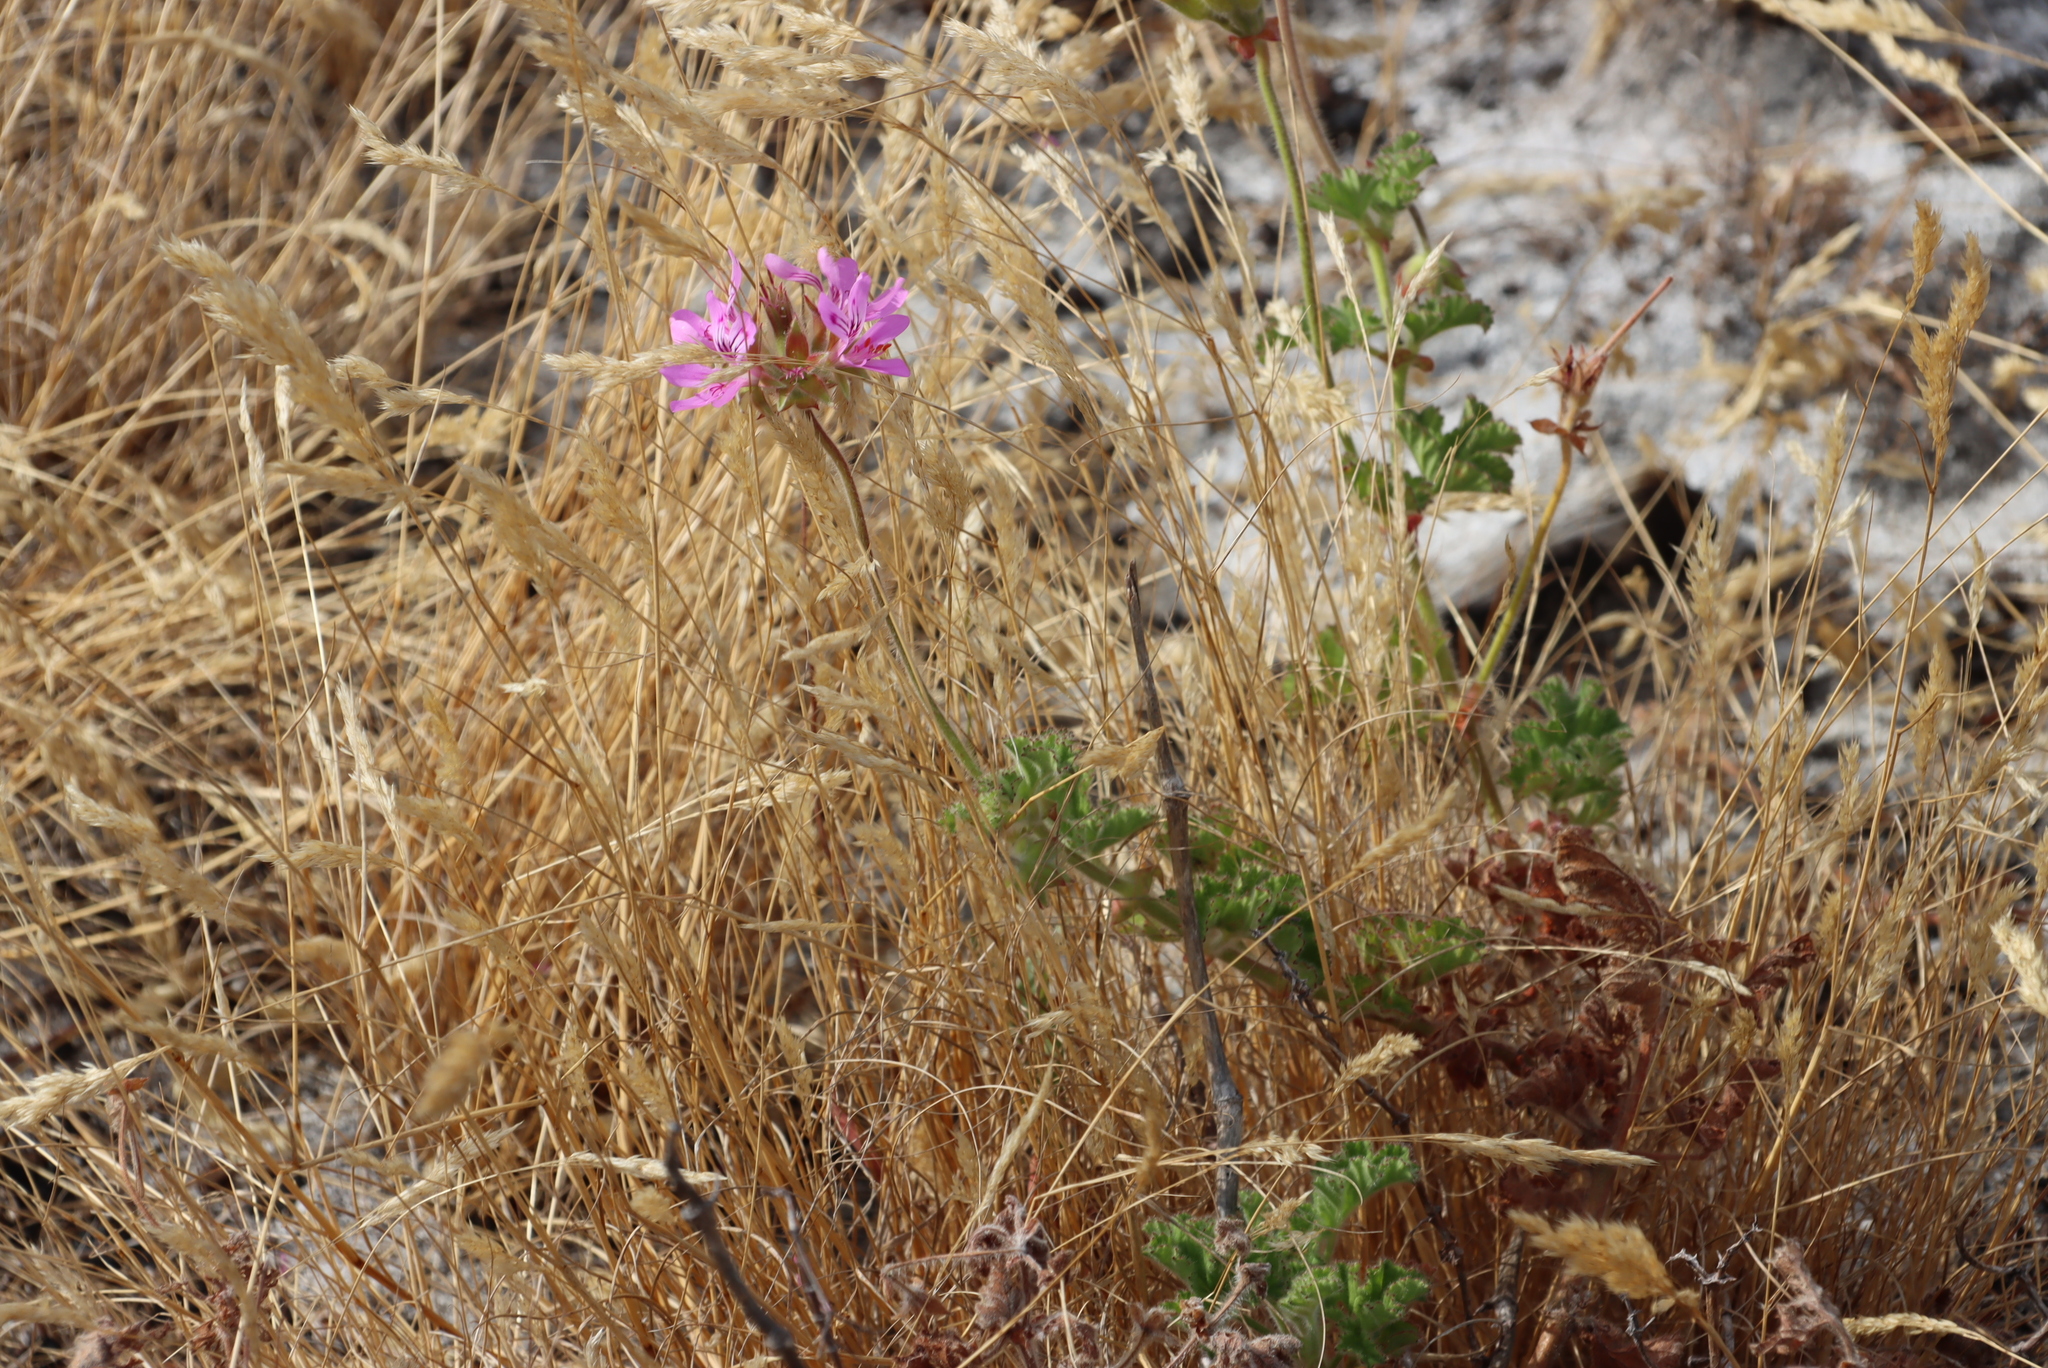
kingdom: Plantae
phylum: Tracheophyta
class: Magnoliopsida
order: Geraniales
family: Geraniaceae
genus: Pelargonium
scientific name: Pelargonium capitatum
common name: Rose scented geranium
